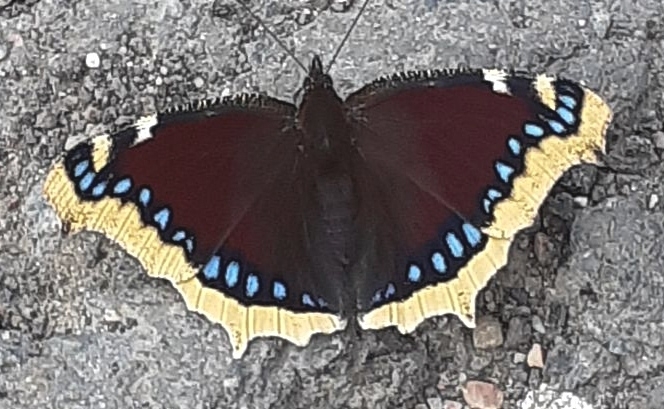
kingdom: Animalia
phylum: Arthropoda
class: Insecta
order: Lepidoptera
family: Nymphalidae
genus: Nymphalis
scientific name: Nymphalis antiopa
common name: Camberwell beauty
